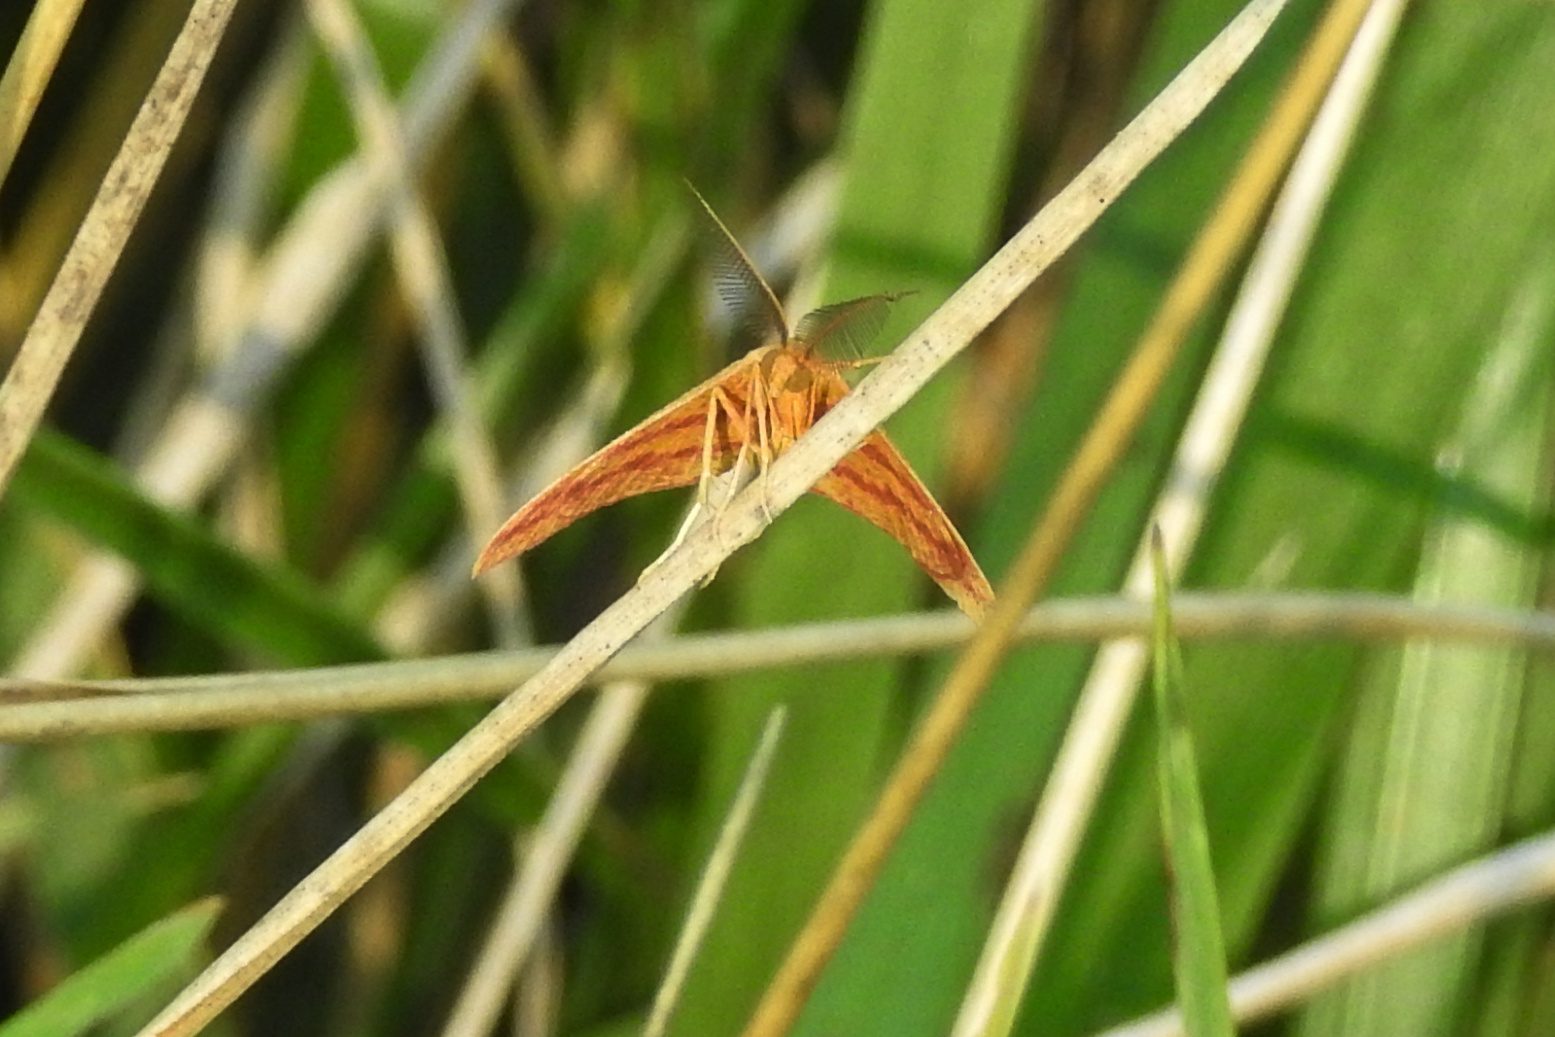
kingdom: Animalia
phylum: Arthropoda
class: Insecta
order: Lepidoptera
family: Geometridae
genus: Haematopis
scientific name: Haematopis grataria
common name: Chickweed geometer
